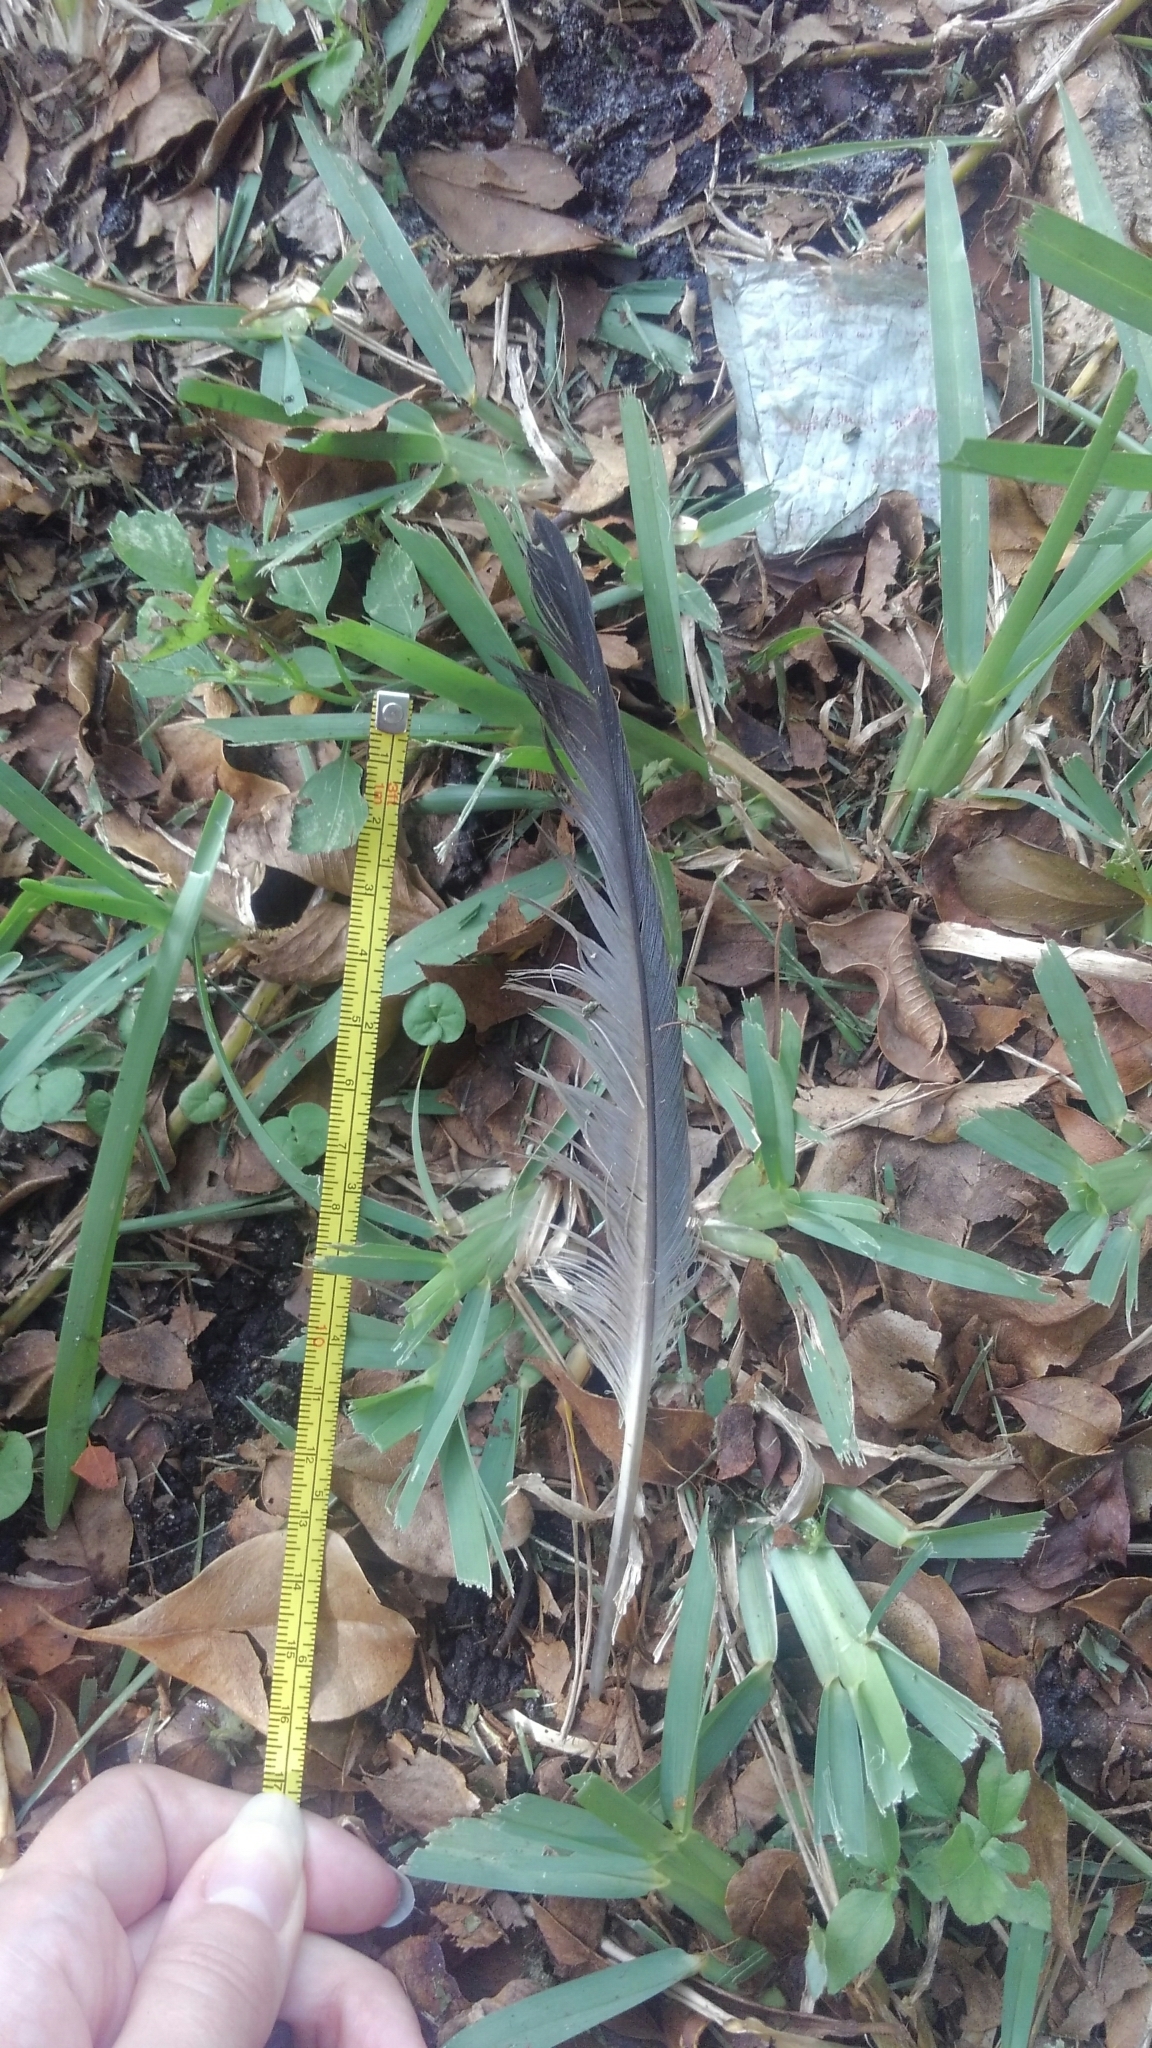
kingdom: Animalia
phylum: Chordata
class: Aves
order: Columbiformes
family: Columbidae
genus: Columba
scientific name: Columba livia
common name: Rock pigeon
